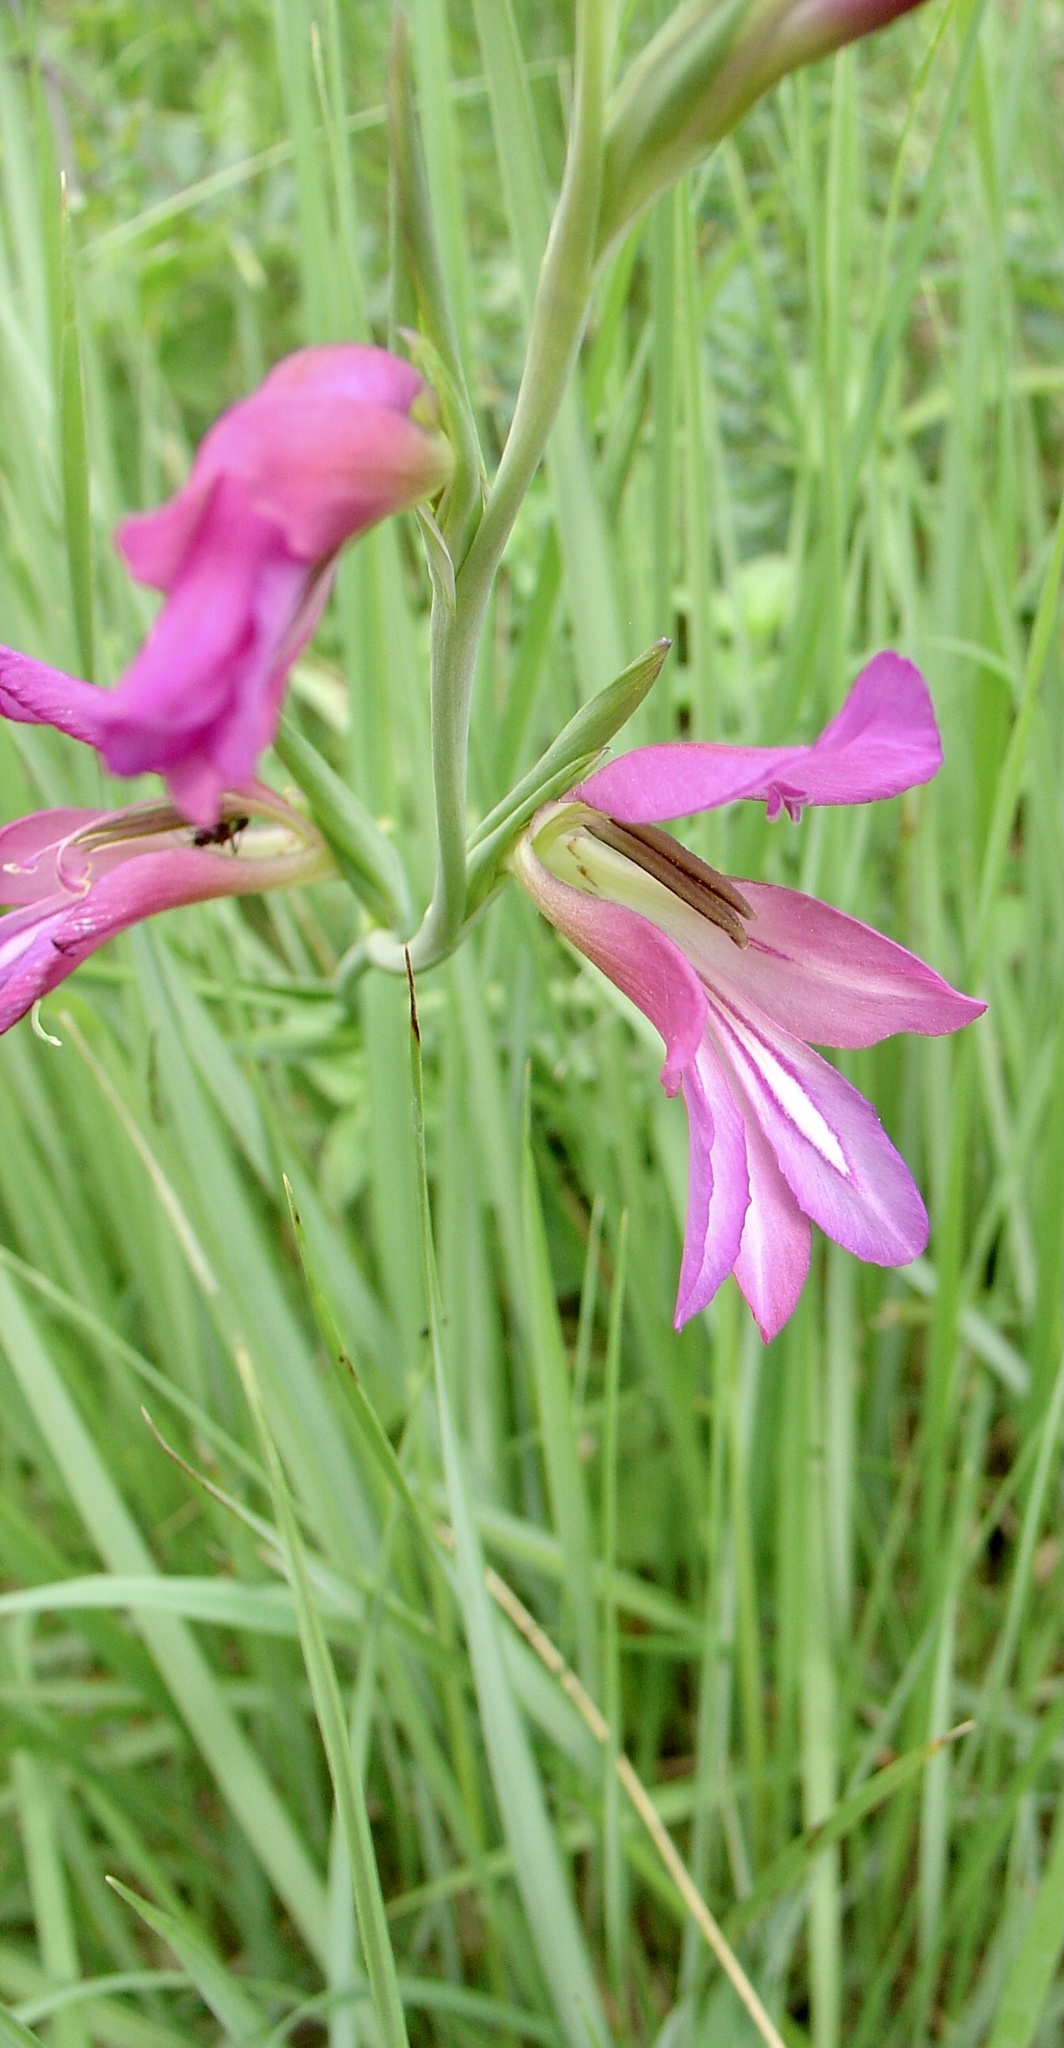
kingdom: Plantae
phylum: Tracheophyta
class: Liliopsida
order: Asparagales
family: Iridaceae
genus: Gladiolus
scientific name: Gladiolus italicus
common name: Field gladiolus
